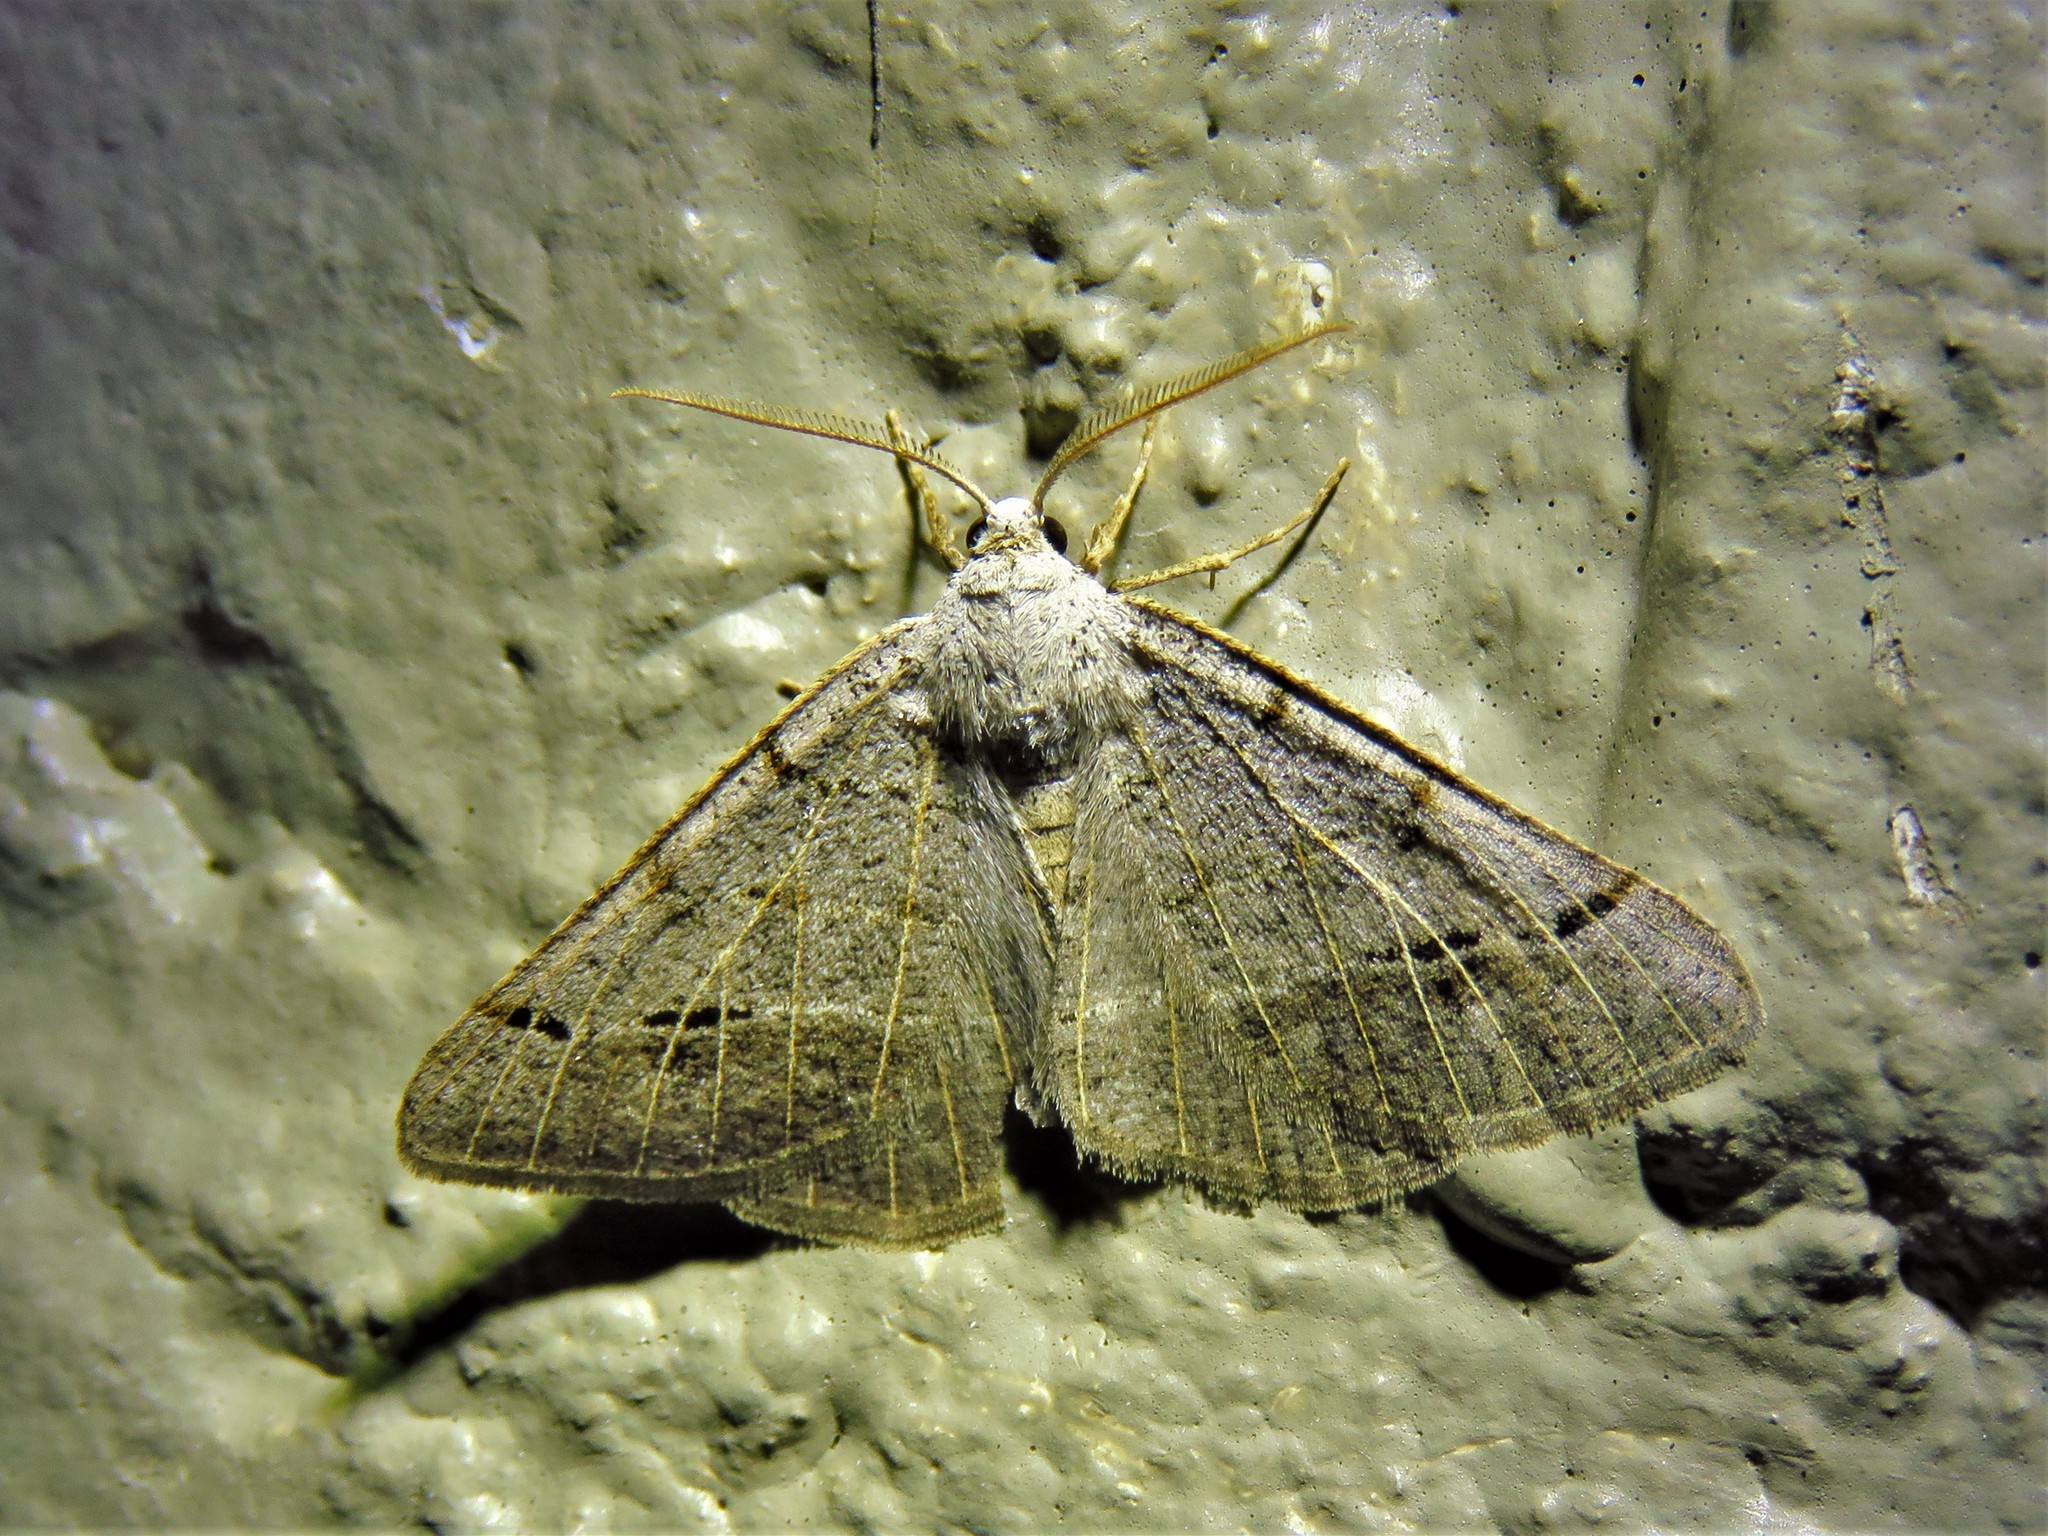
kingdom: Animalia
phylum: Arthropoda
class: Insecta
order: Lepidoptera
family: Geometridae
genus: Isturgia
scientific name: Isturgia dislocaria
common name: Pale-viened enconista
